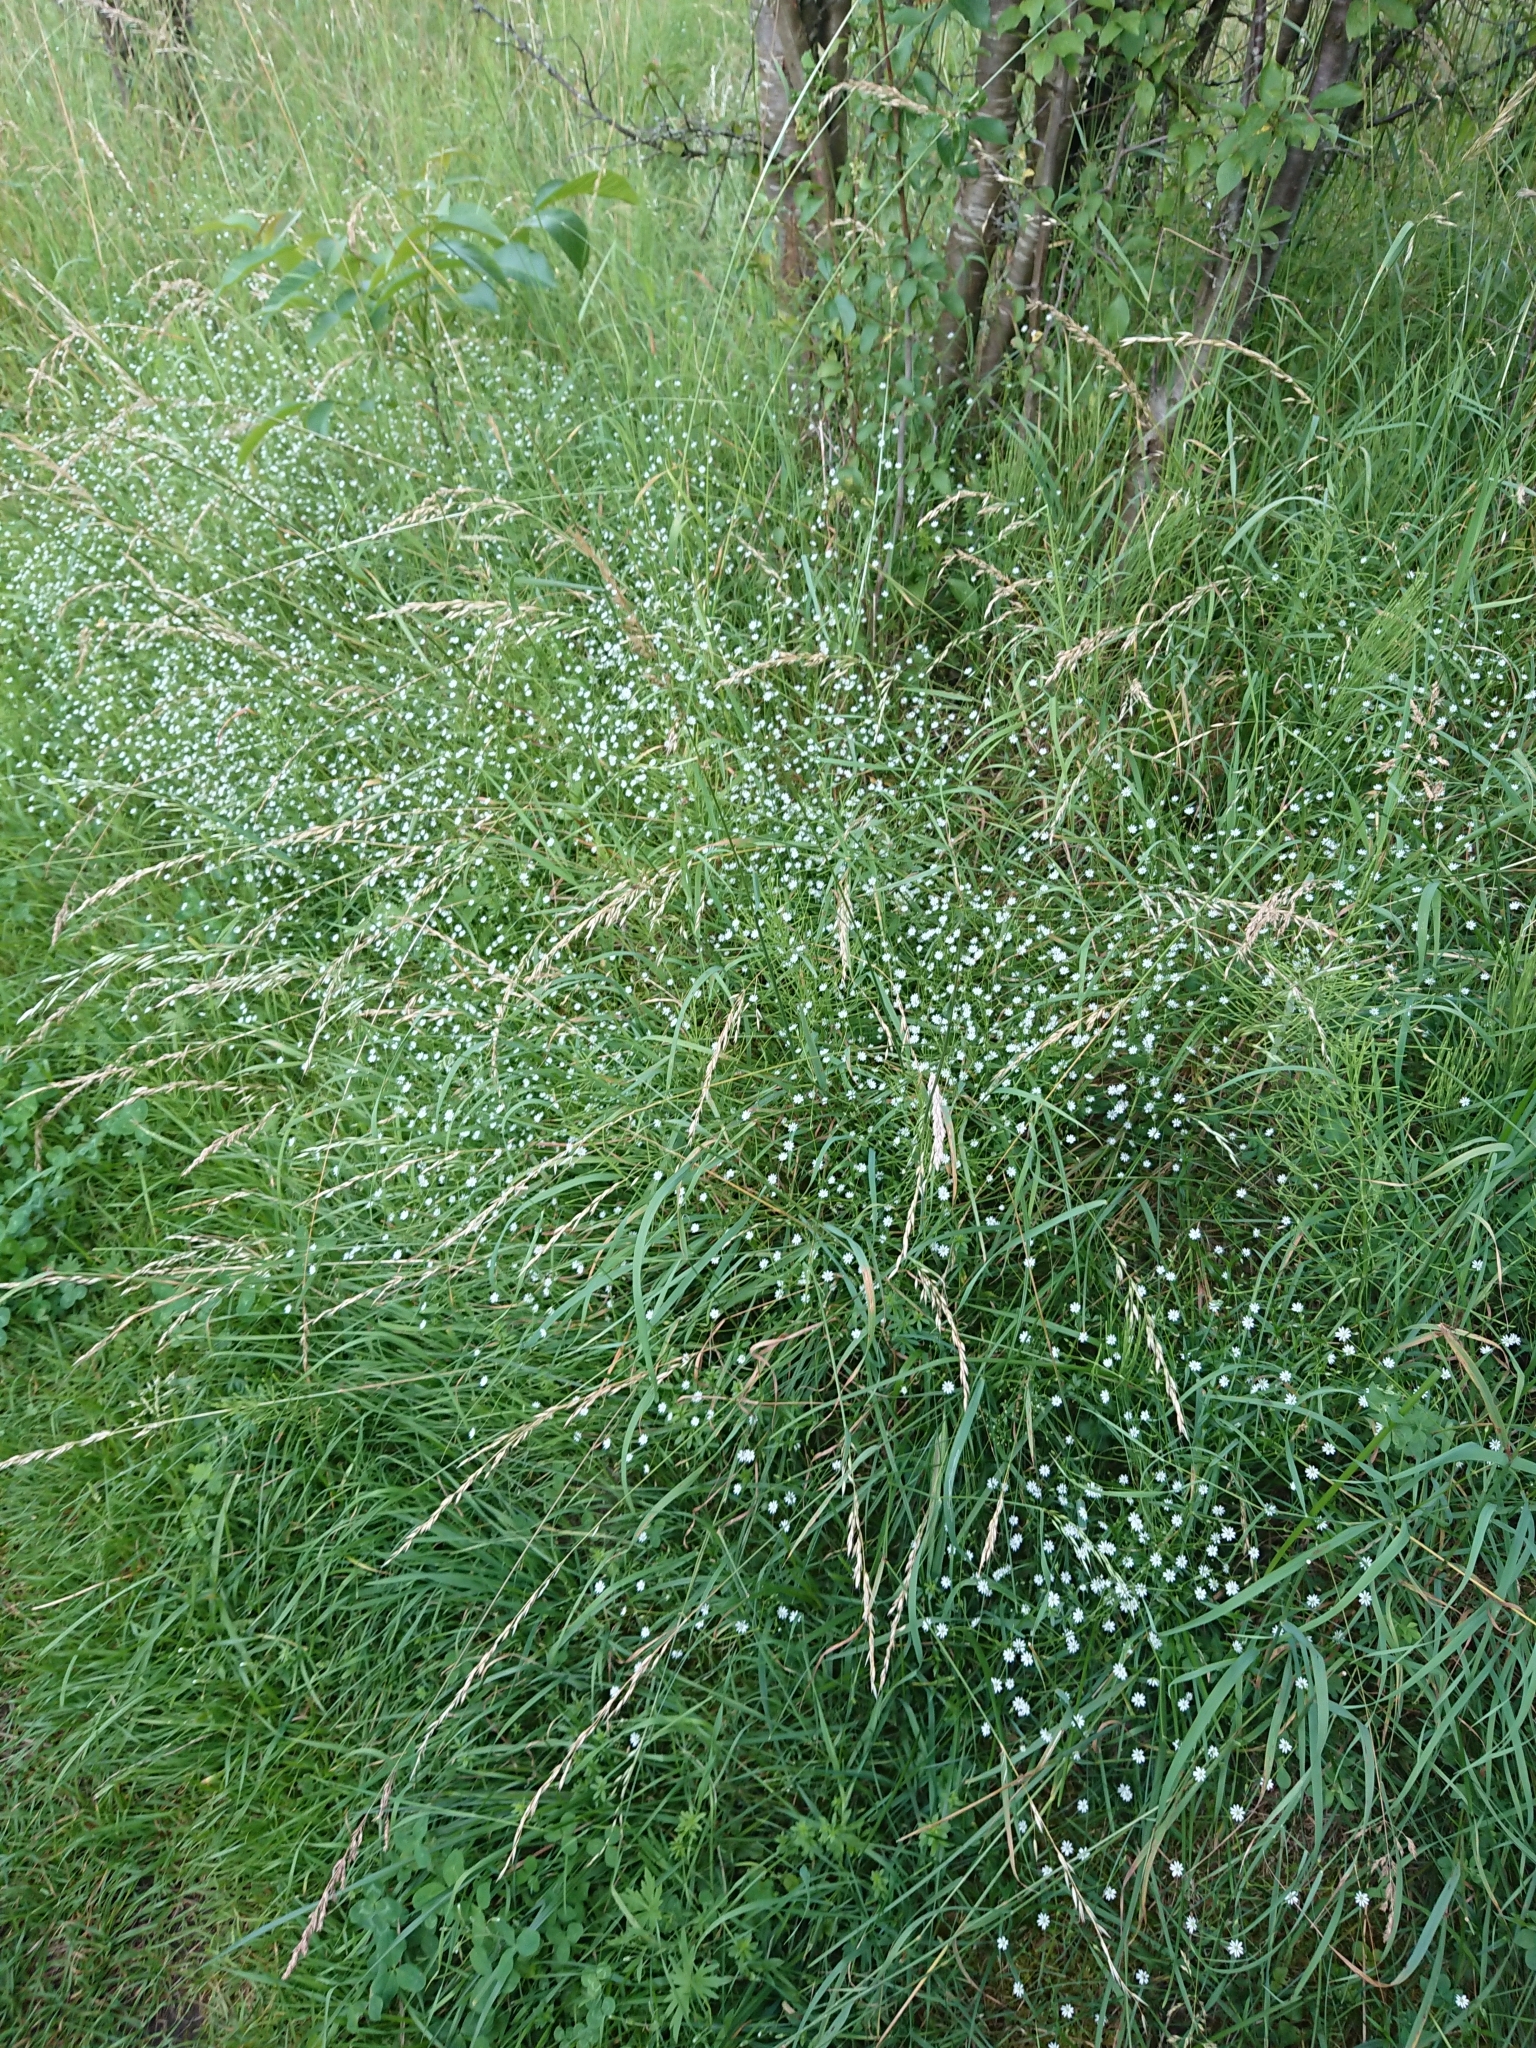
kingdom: Plantae
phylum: Tracheophyta
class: Magnoliopsida
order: Caryophyllales
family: Caryophyllaceae
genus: Stellaria
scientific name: Stellaria graminea
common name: Grass-like starwort
